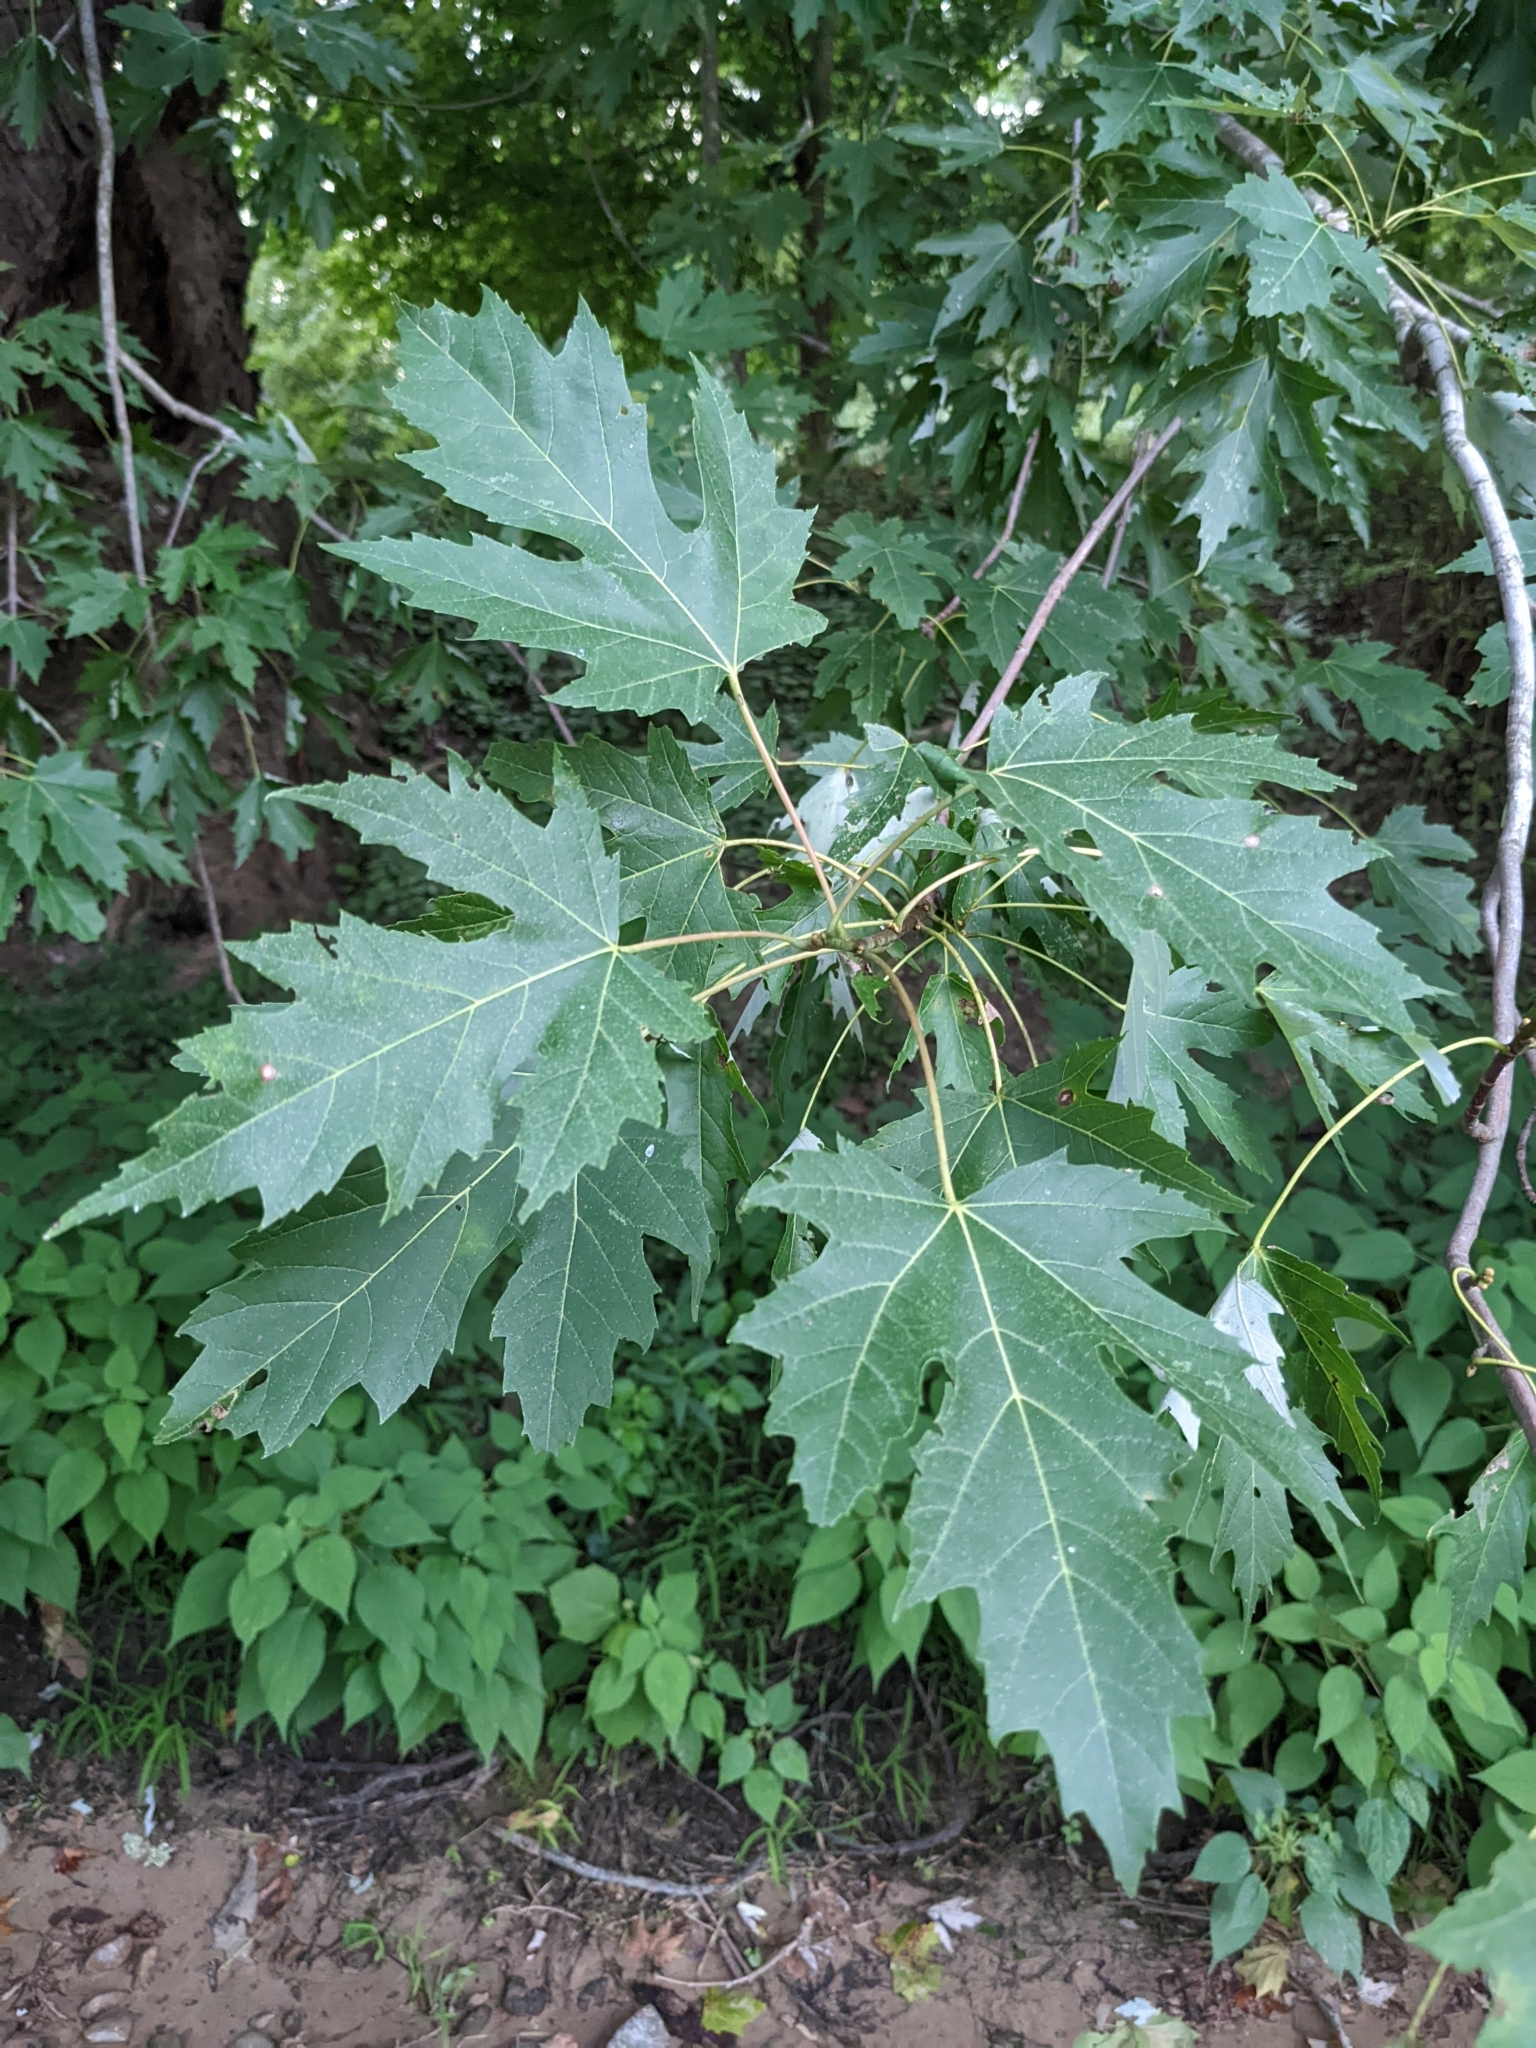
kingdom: Plantae
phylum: Tracheophyta
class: Magnoliopsida
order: Sapindales
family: Sapindaceae
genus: Acer
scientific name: Acer saccharinum
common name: Silver maple
